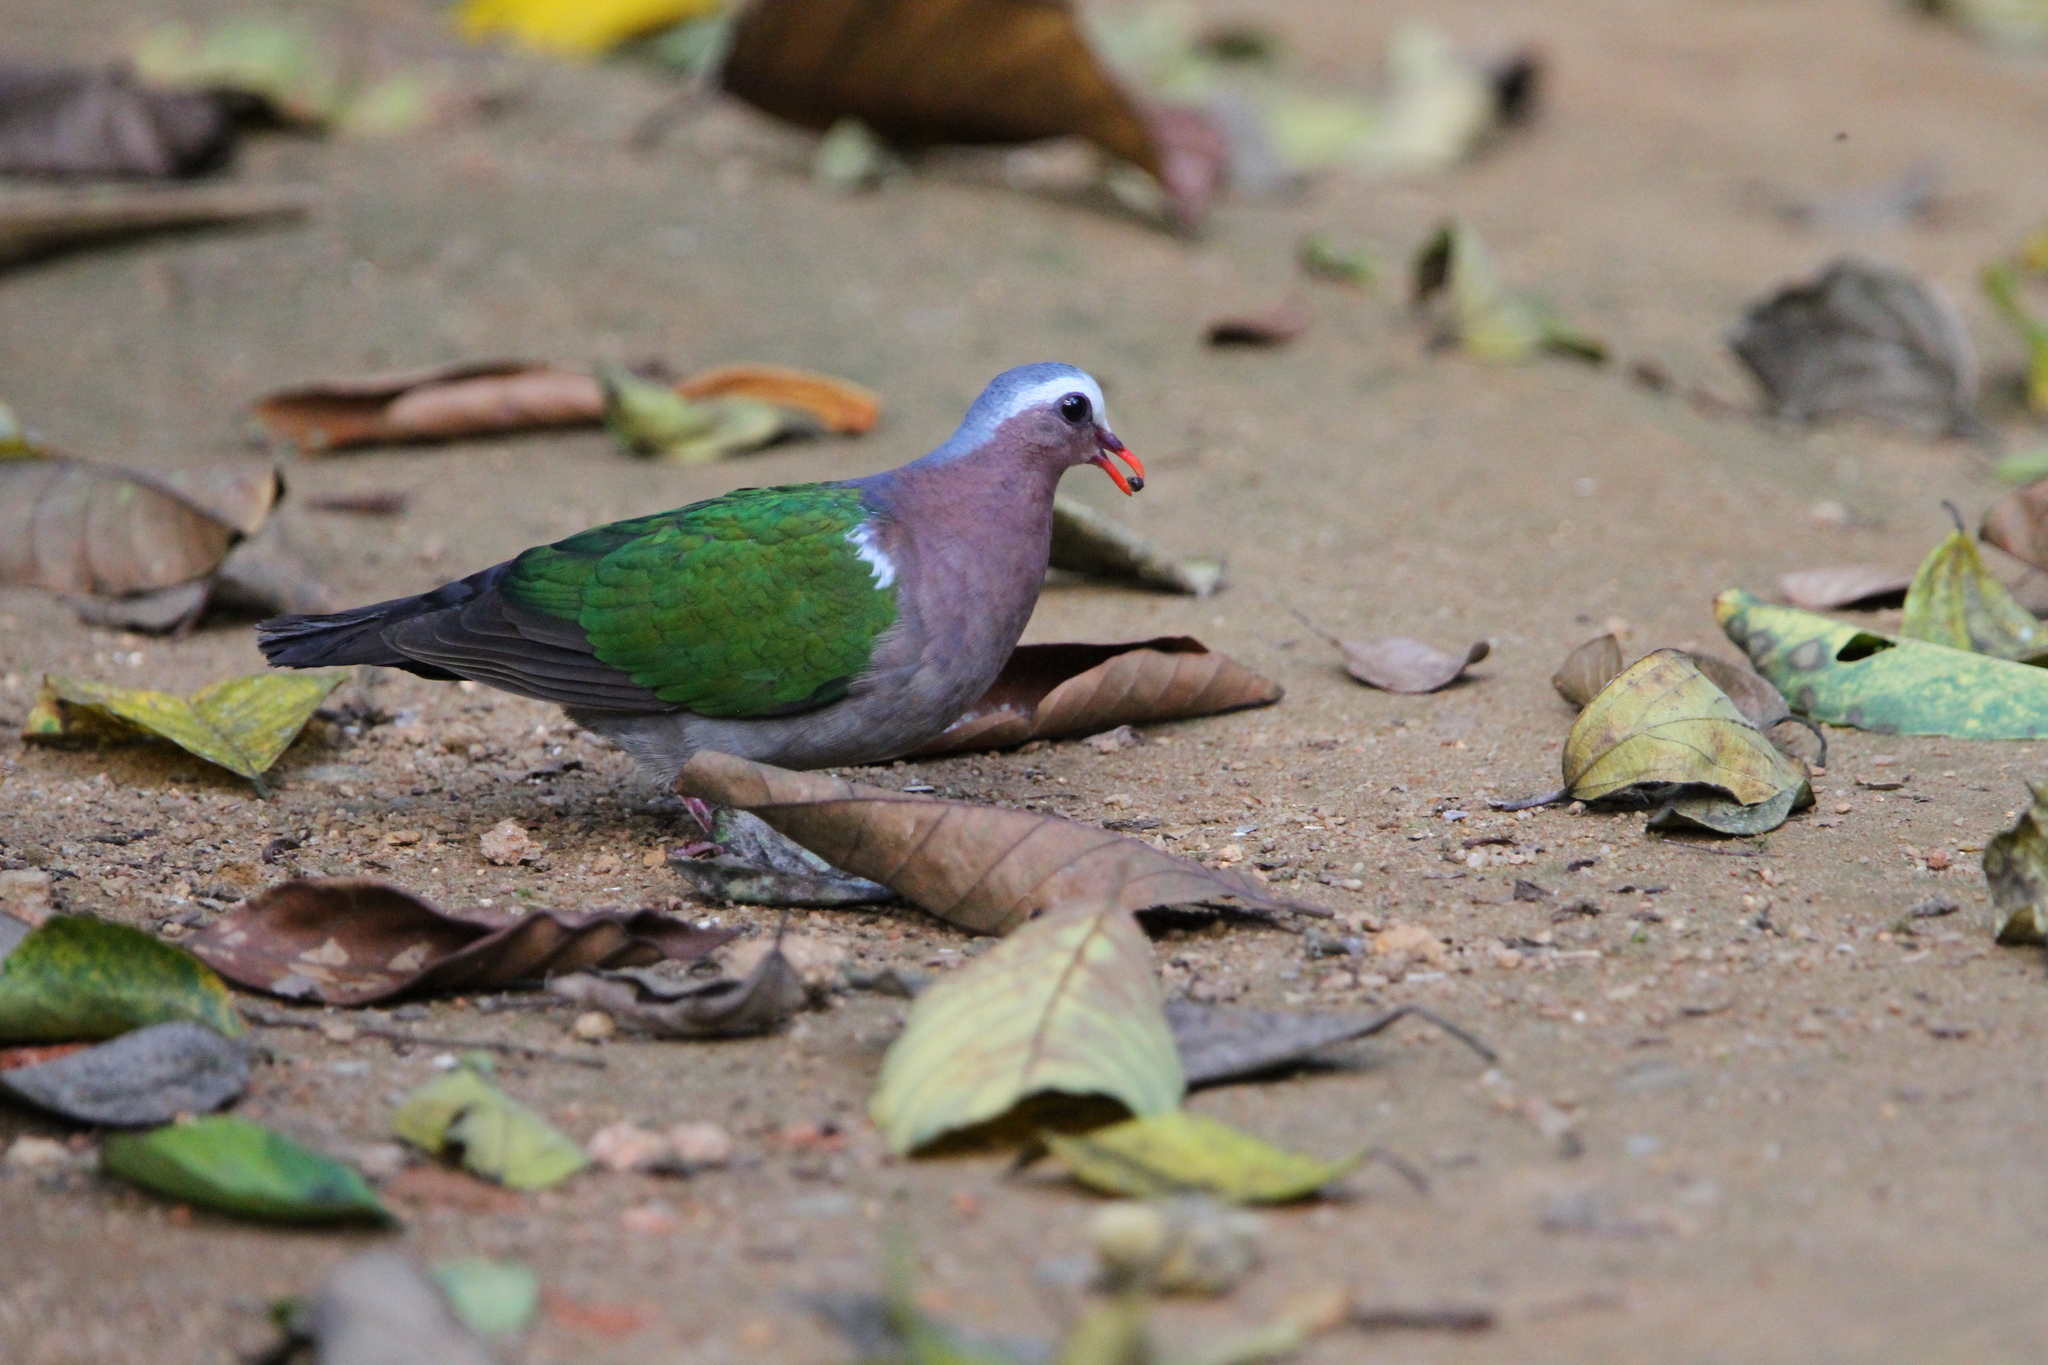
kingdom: Animalia
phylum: Chordata
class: Aves
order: Columbiformes
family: Columbidae
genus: Chalcophaps
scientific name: Chalcophaps indica
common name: Common emerald dove
